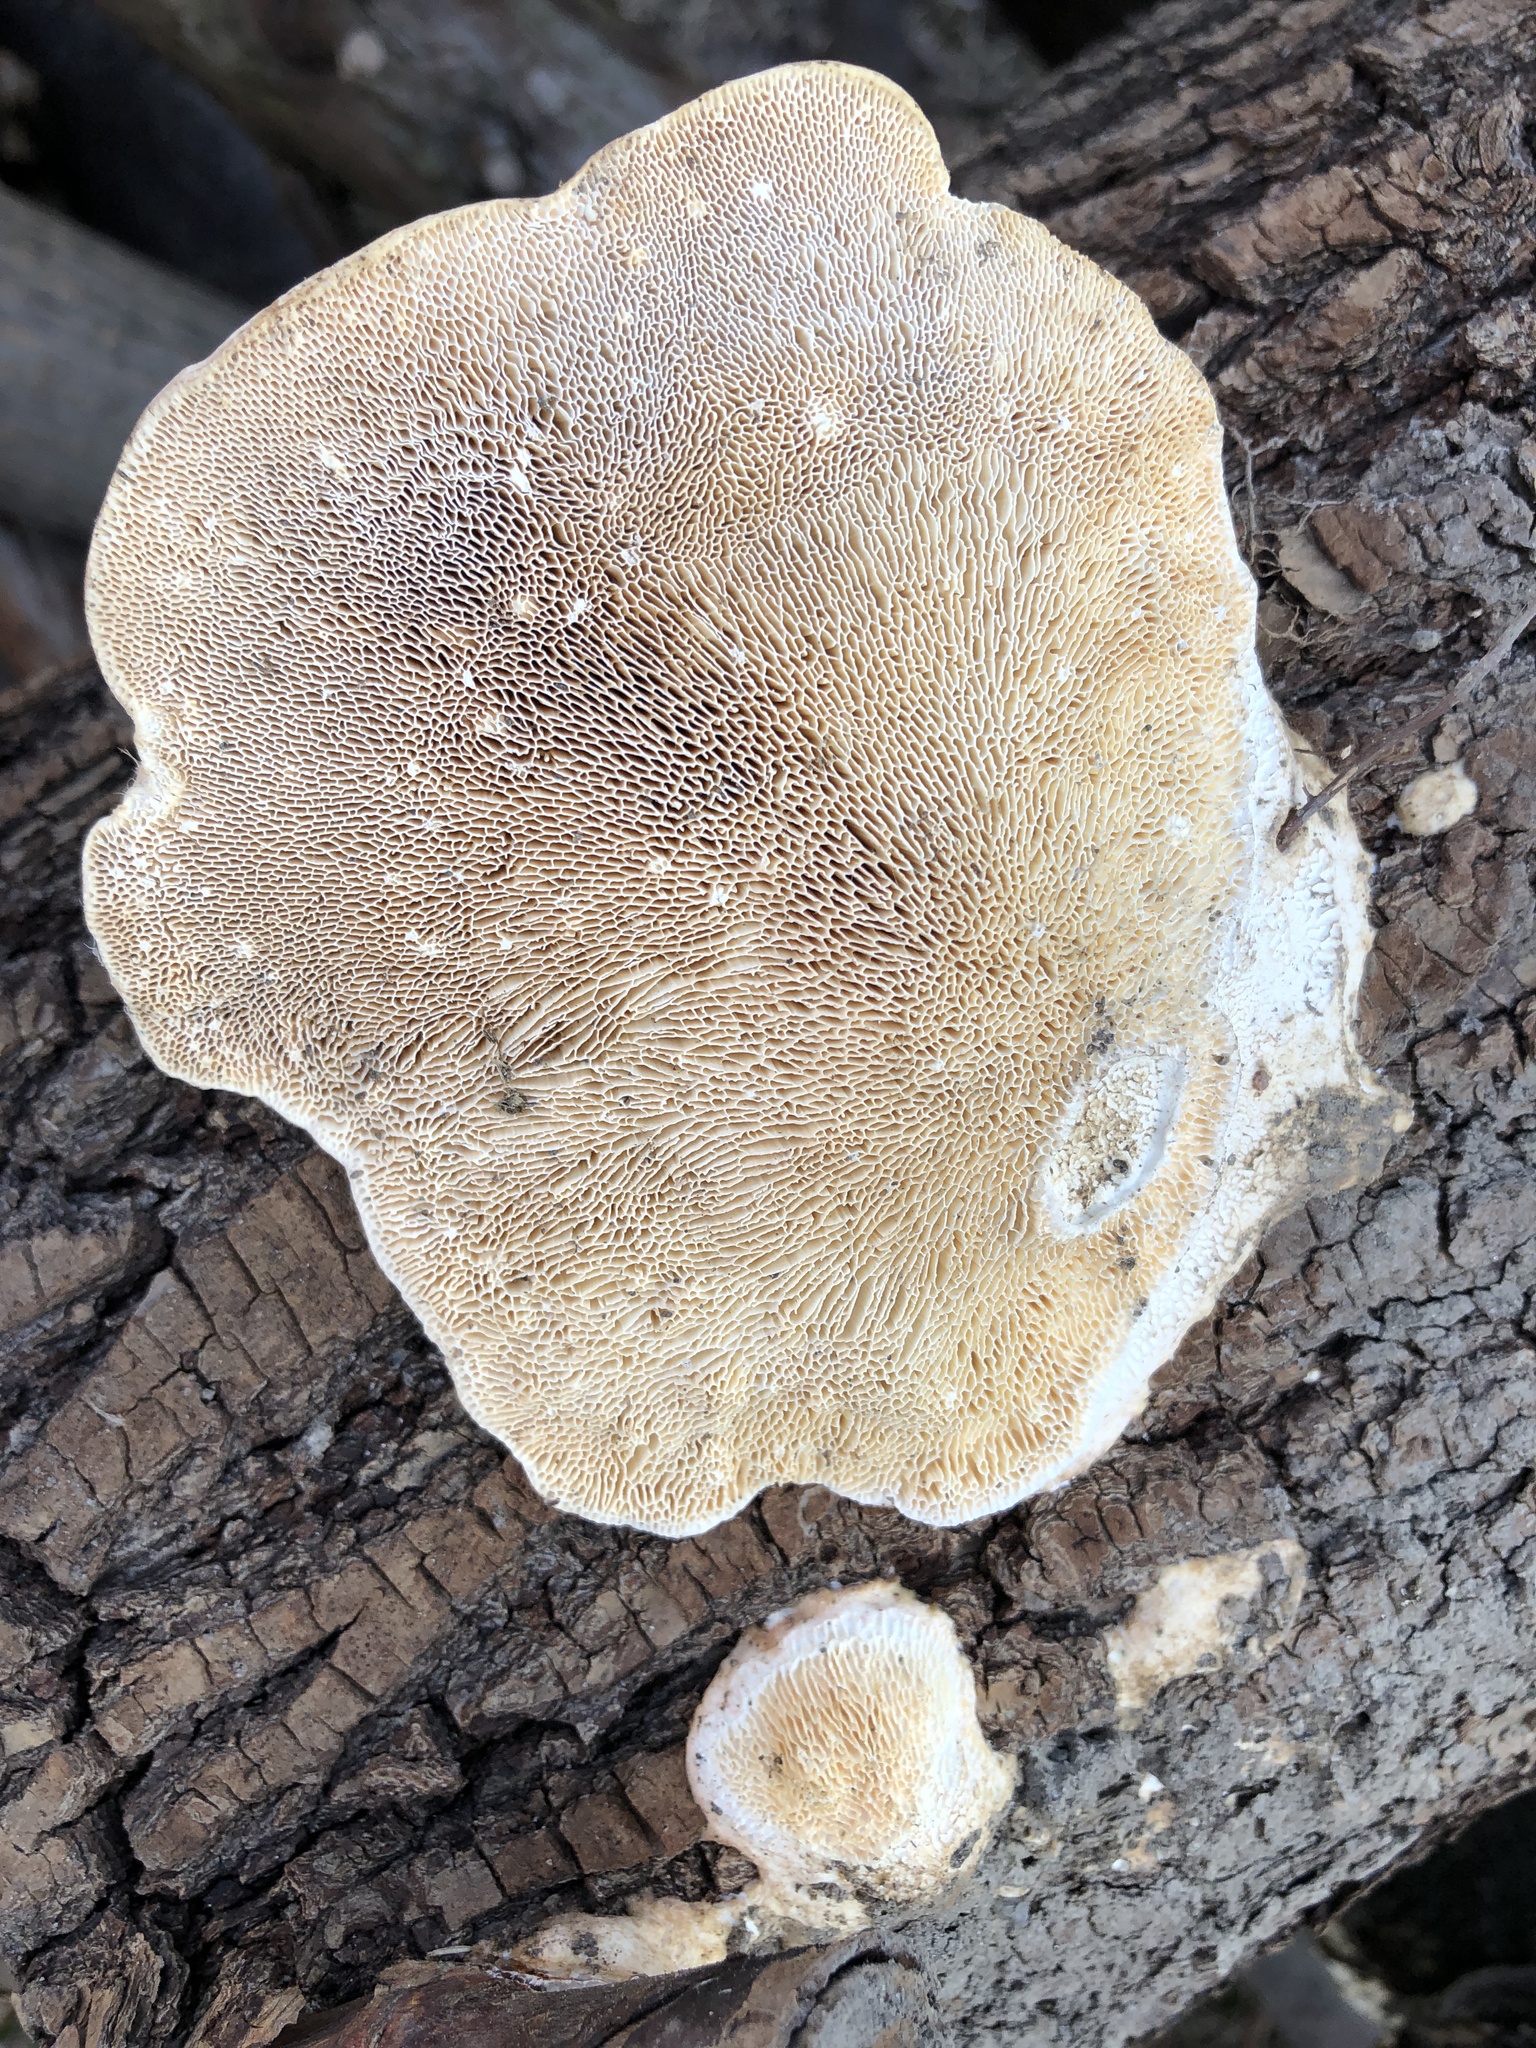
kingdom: Fungi
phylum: Basidiomycota
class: Agaricomycetes
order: Polyporales
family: Polyporaceae
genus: Trametes
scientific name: Trametes gibbosa
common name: Lumpy bracket
